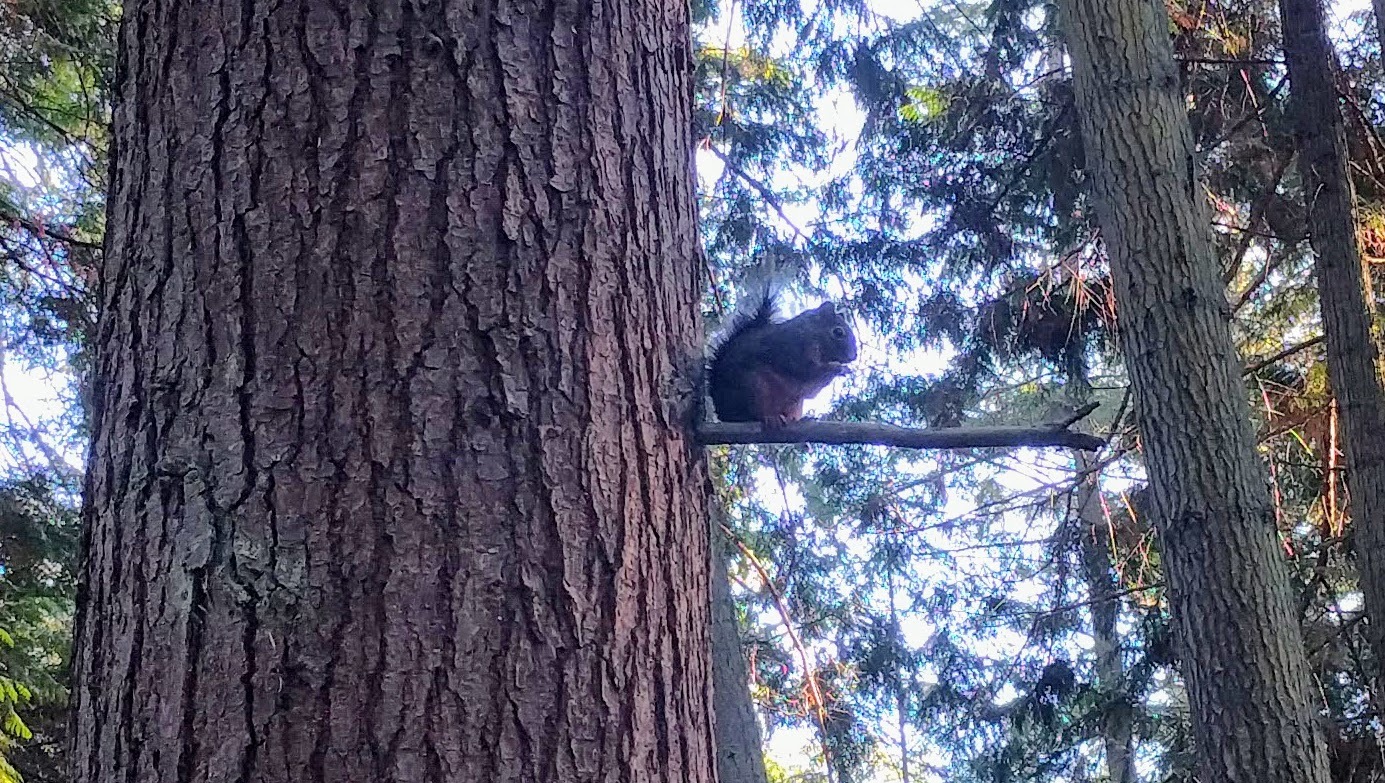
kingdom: Animalia
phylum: Chordata
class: Mammalia
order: Rodentia
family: Sciuridae
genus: Tamiasciurus
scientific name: Tamiasciurus douglasii
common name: Douglas's squirrel
